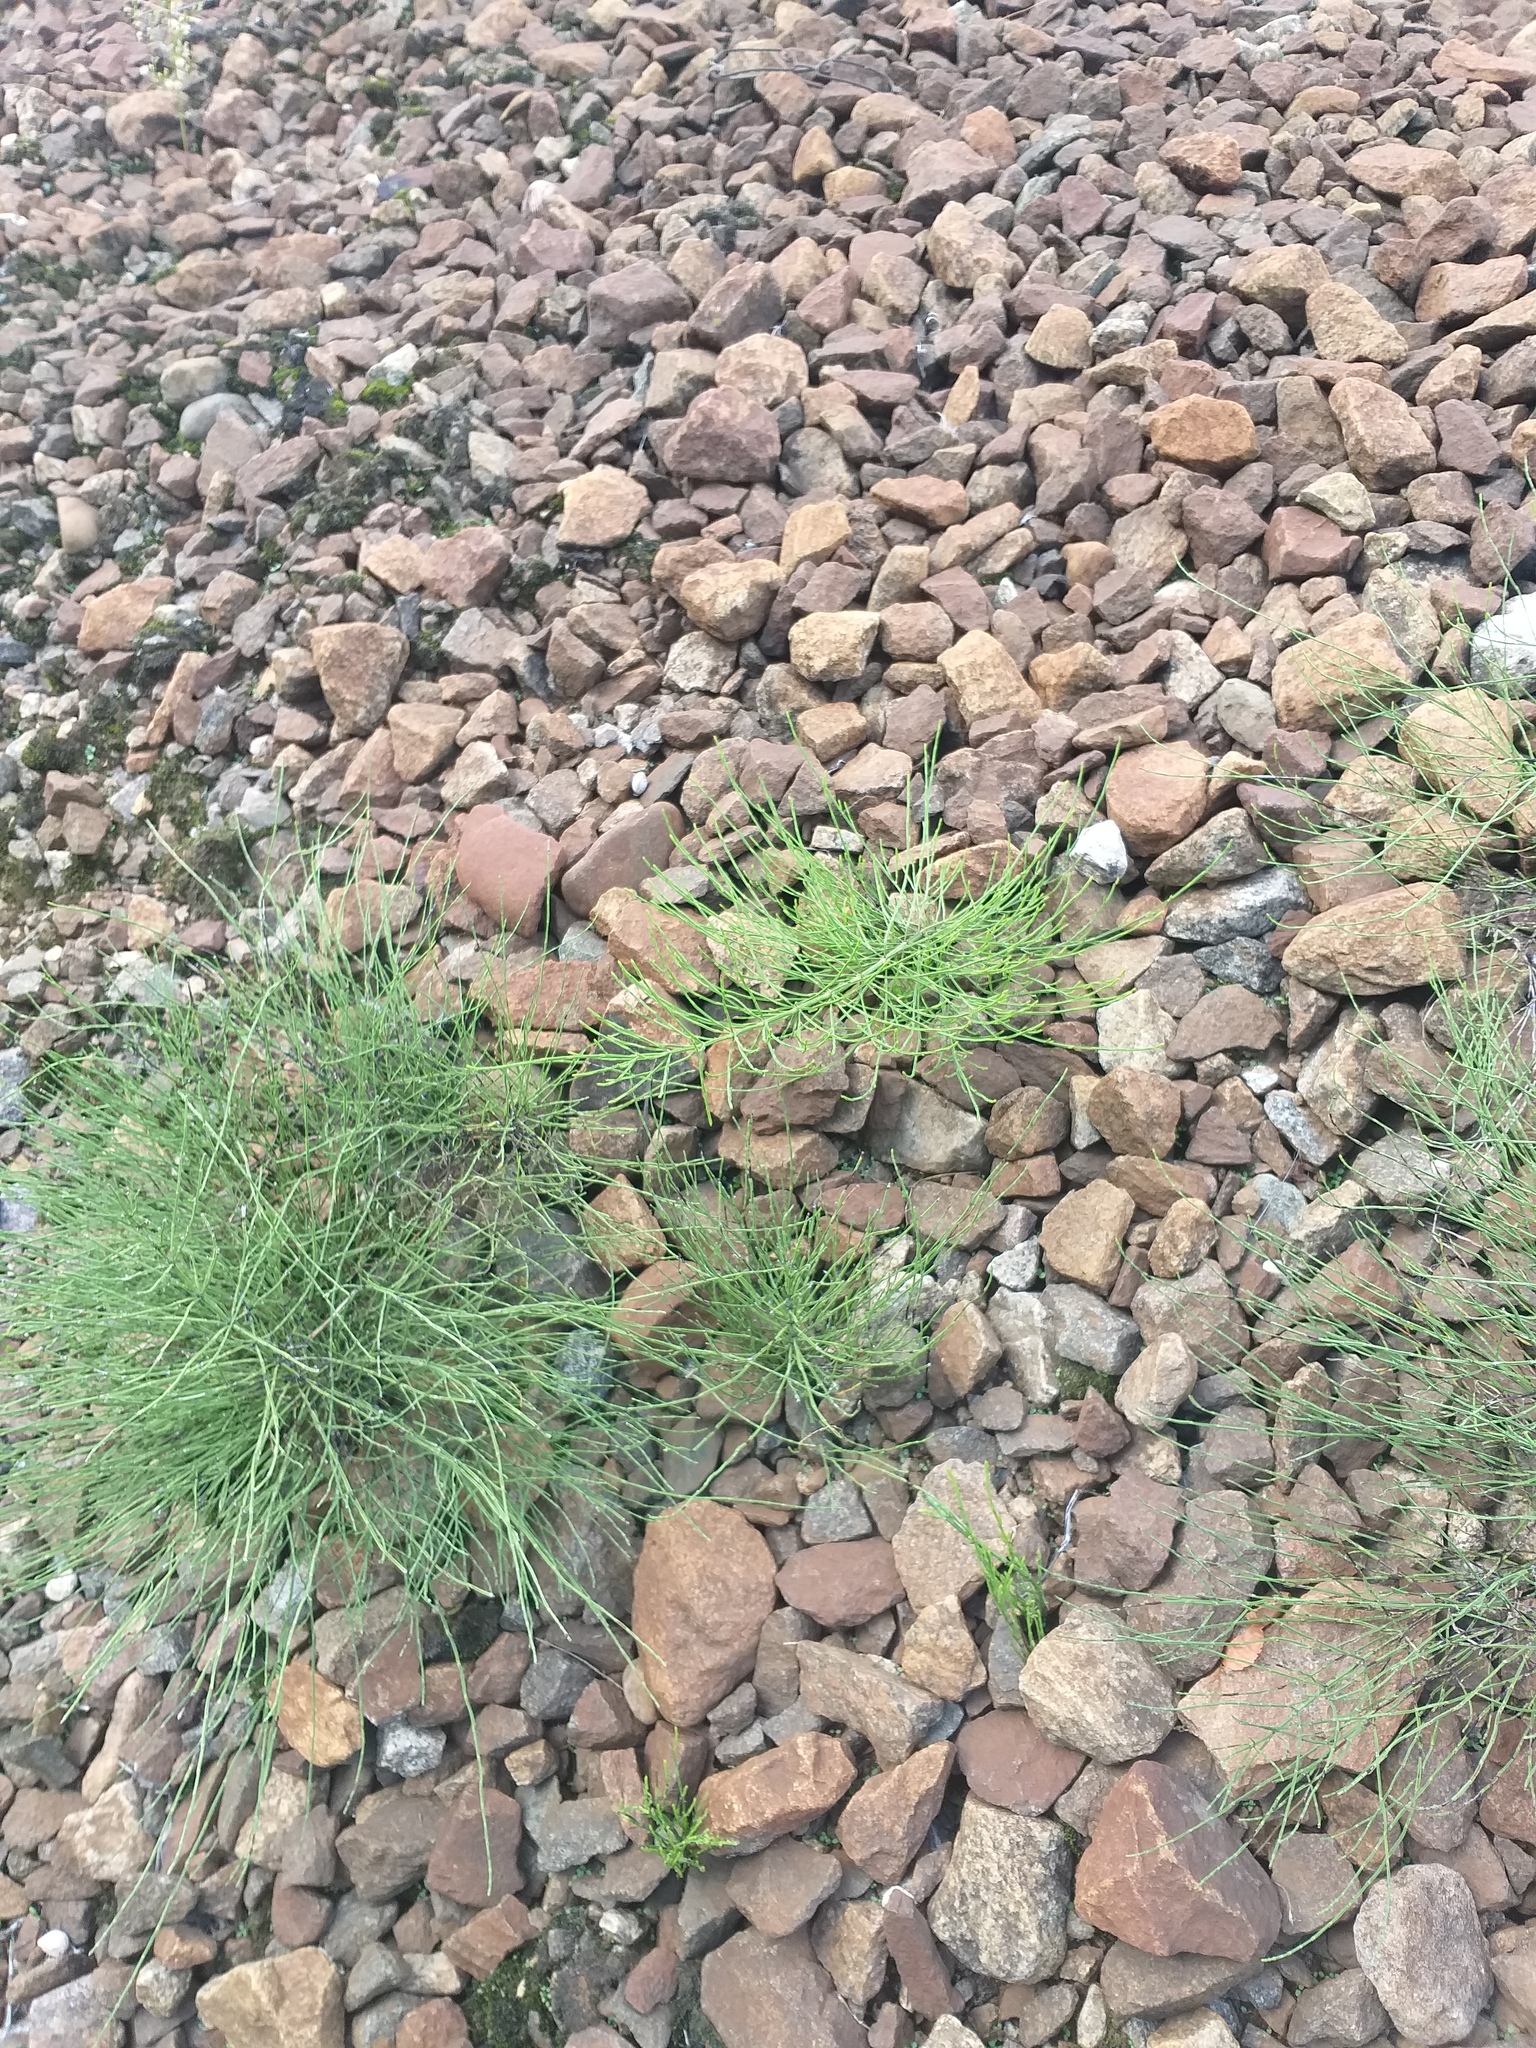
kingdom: Plantae
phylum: Tracheophyta
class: Polypodiopsida
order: Equisetales
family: Equisetaceae
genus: Equisetum
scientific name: Equisetum arvense
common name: Field horsetail
